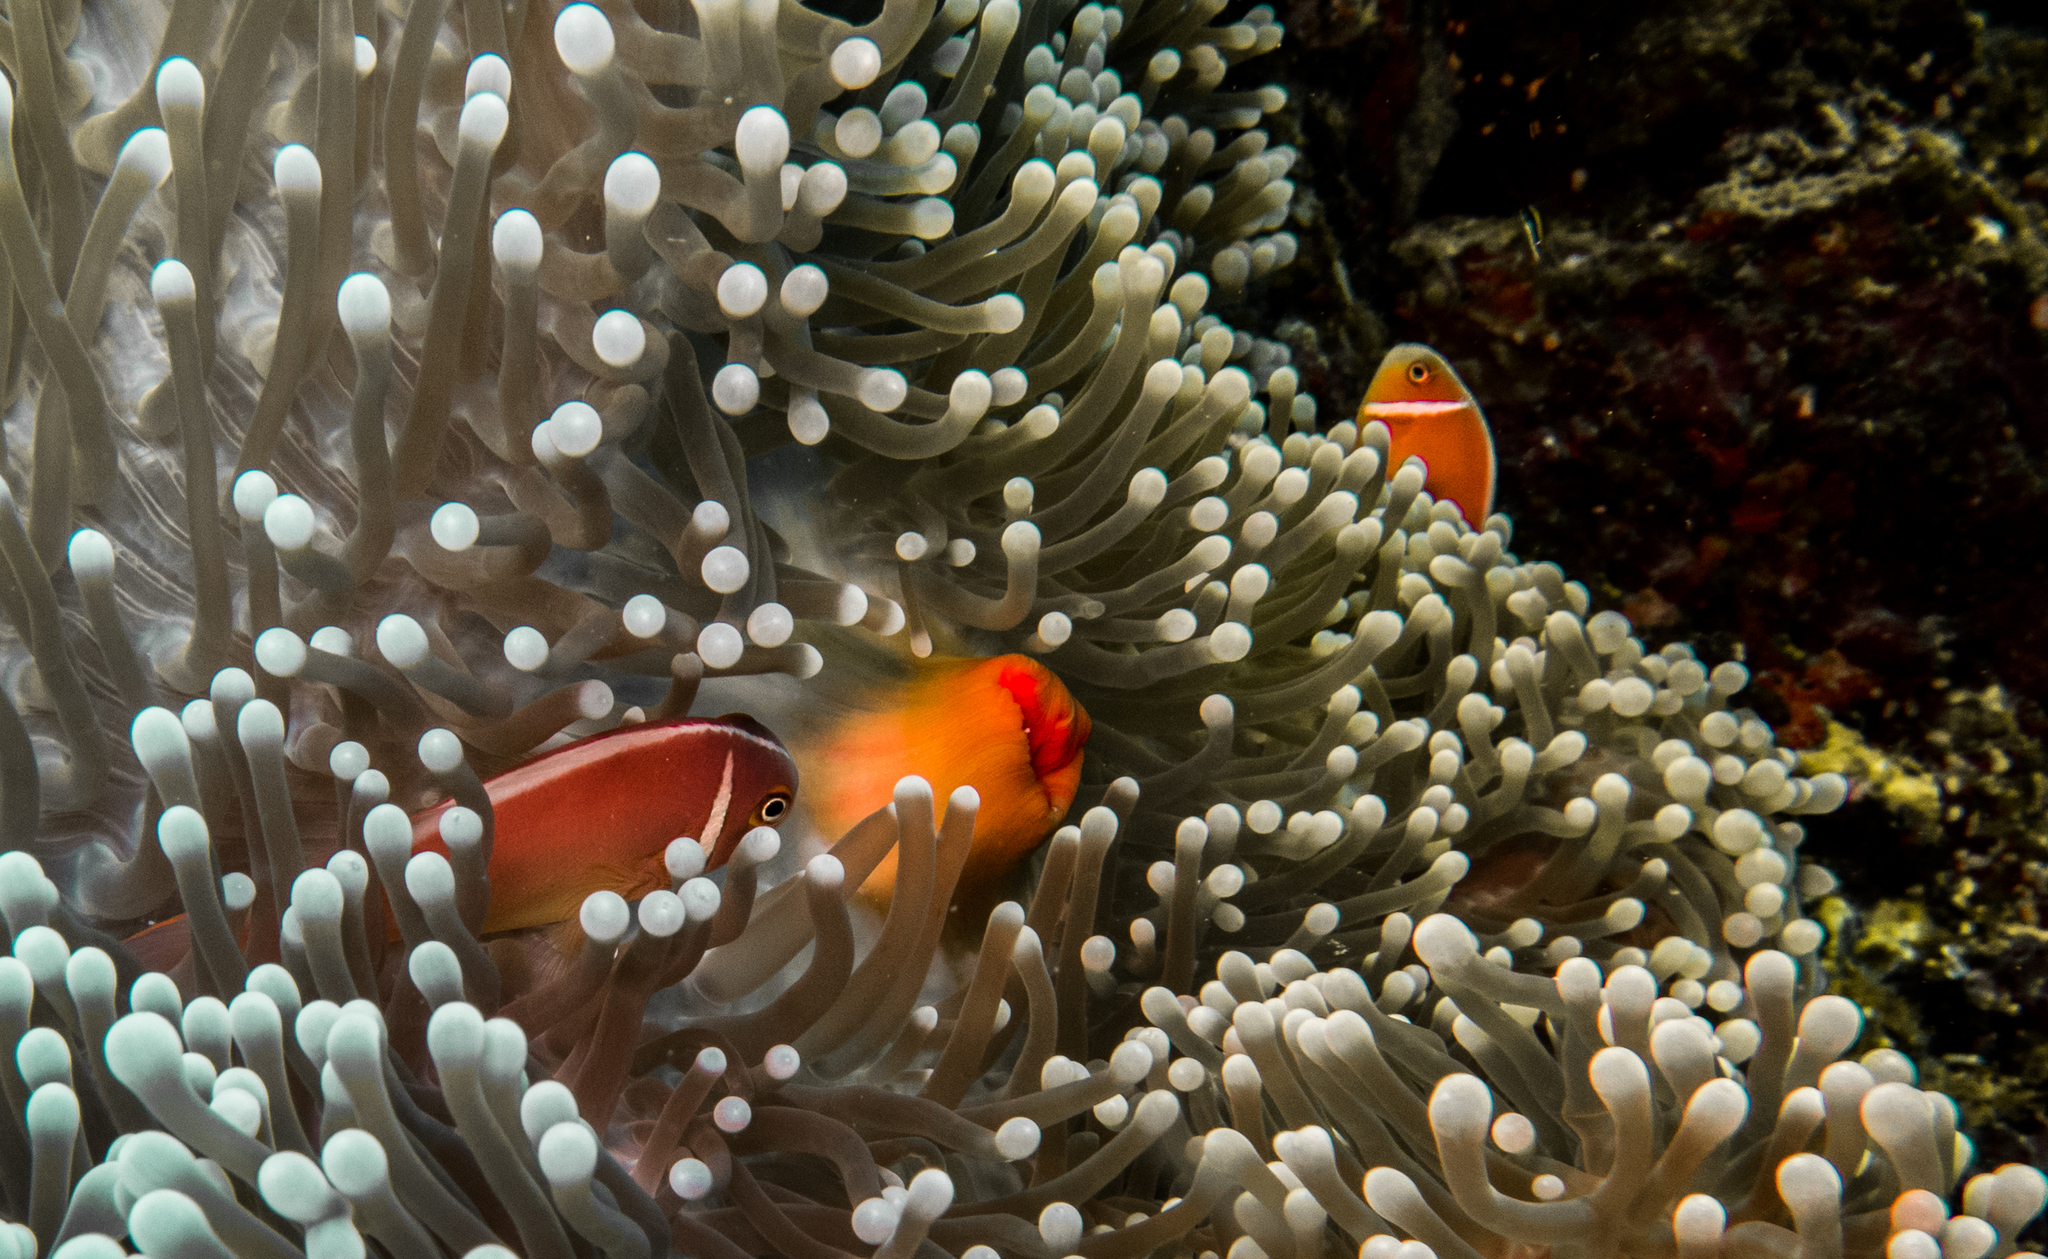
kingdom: Animalia
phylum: Chordata
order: Perciformes
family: Pomacentridae
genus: Amphiprion
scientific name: Amphiprion perideraion
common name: Pink anemonefish
